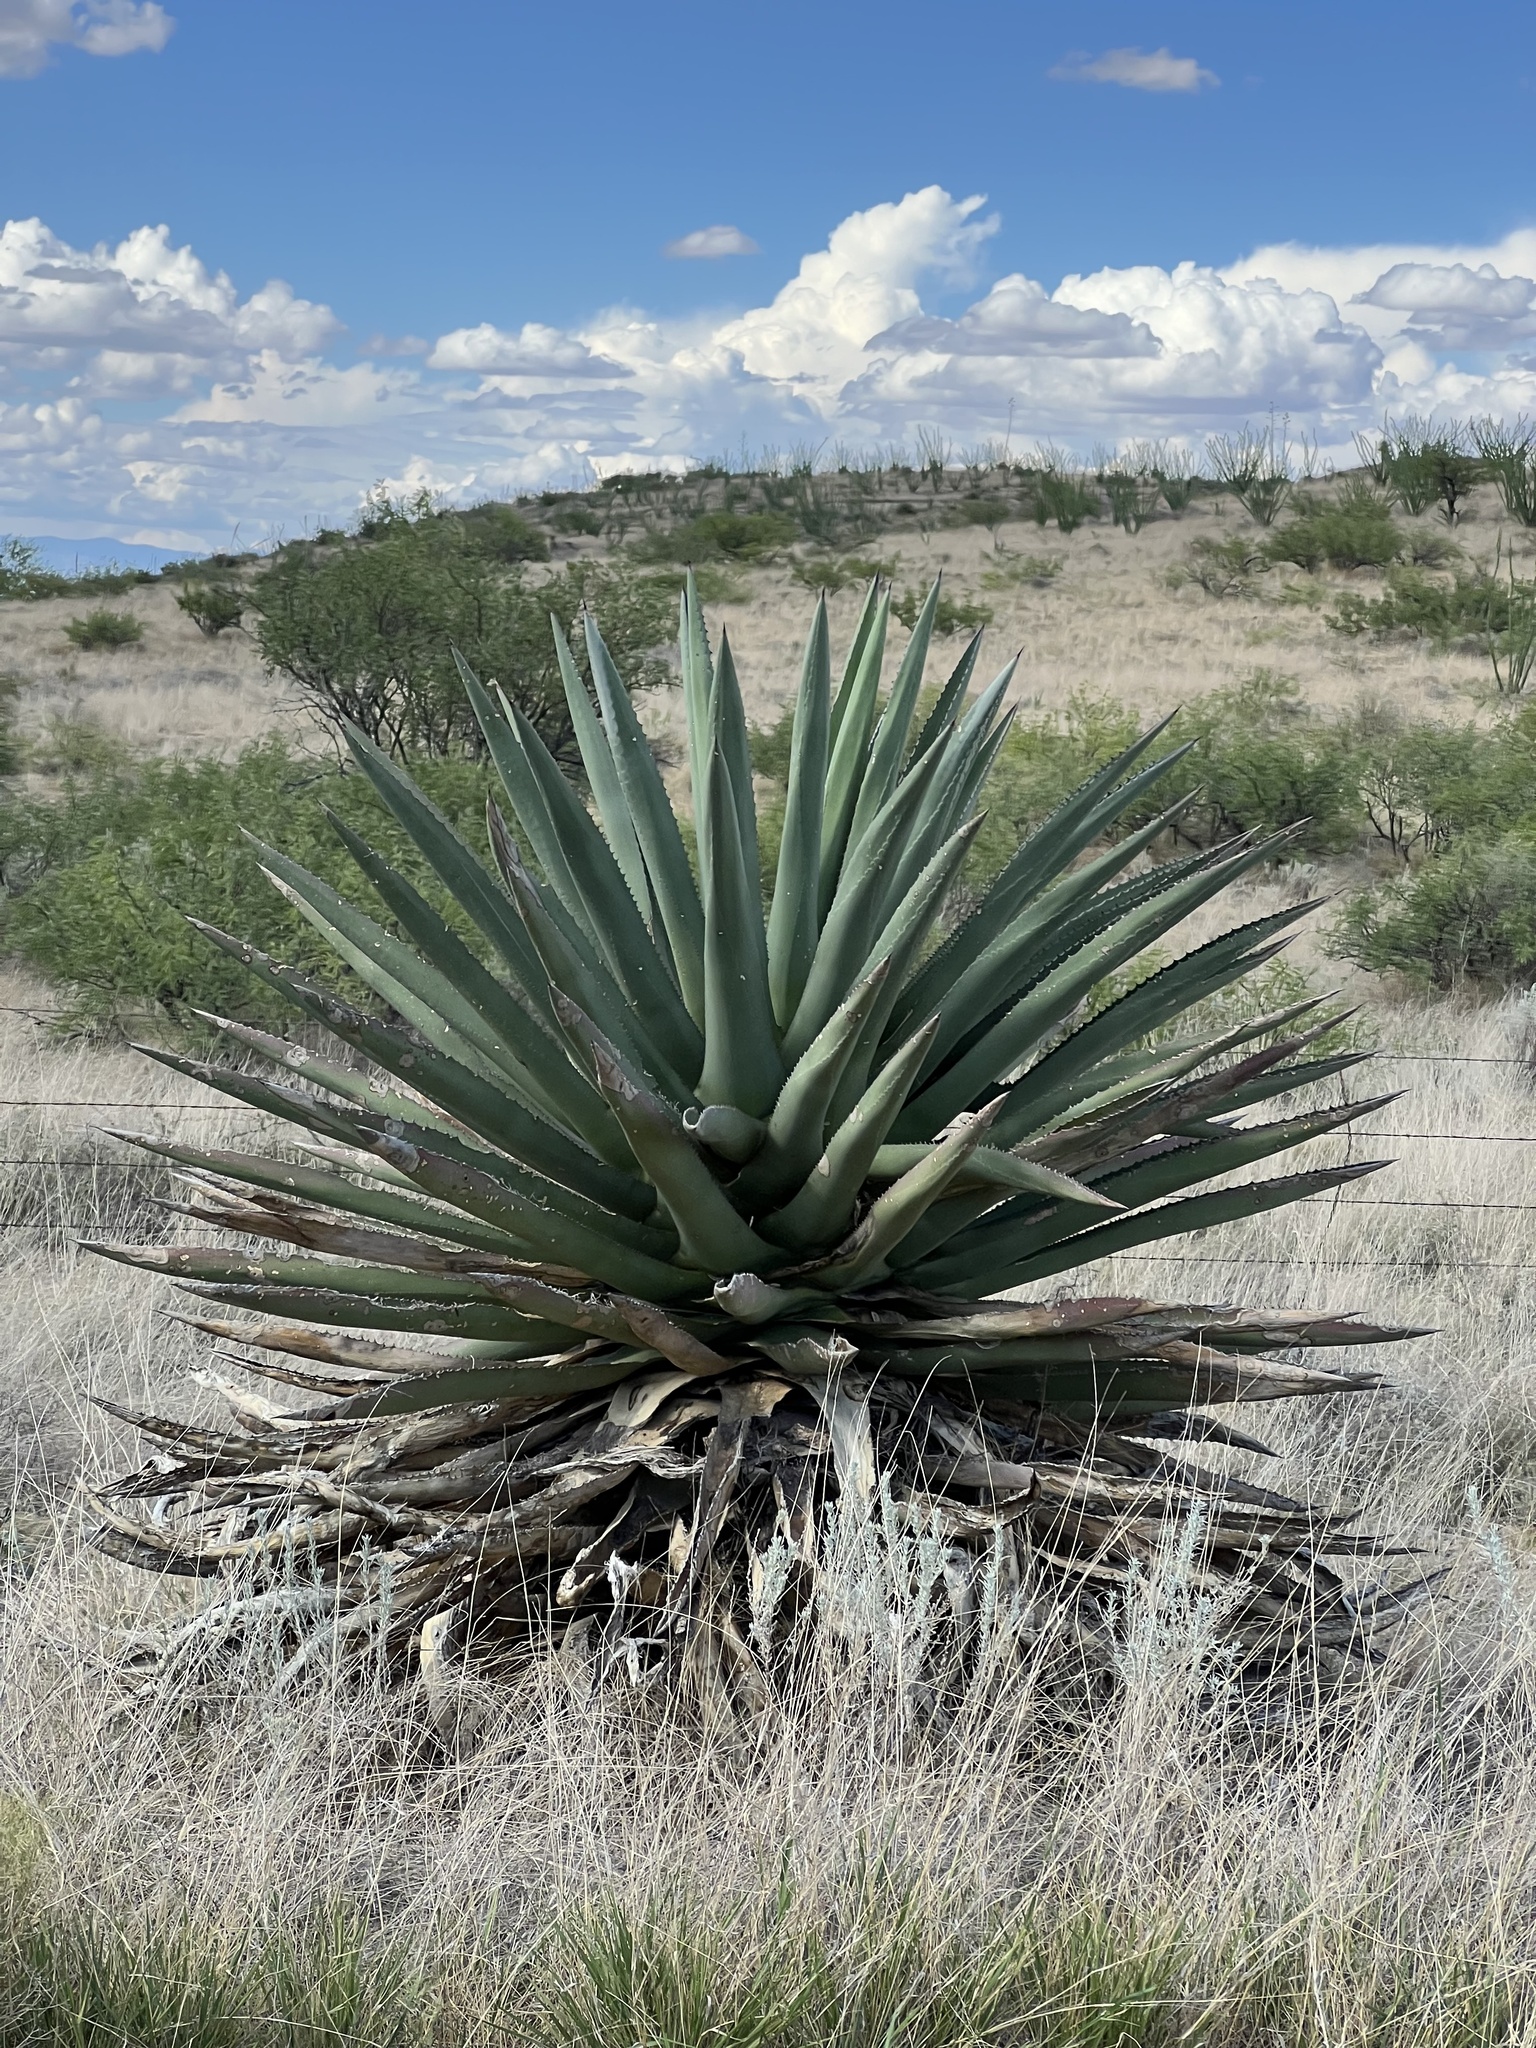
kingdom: Plantae
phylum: Tracheophyta
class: Liliopsida
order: Asparagales
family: Asparagaceae
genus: Agave
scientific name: Agave palmeri
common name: Palmer agave
